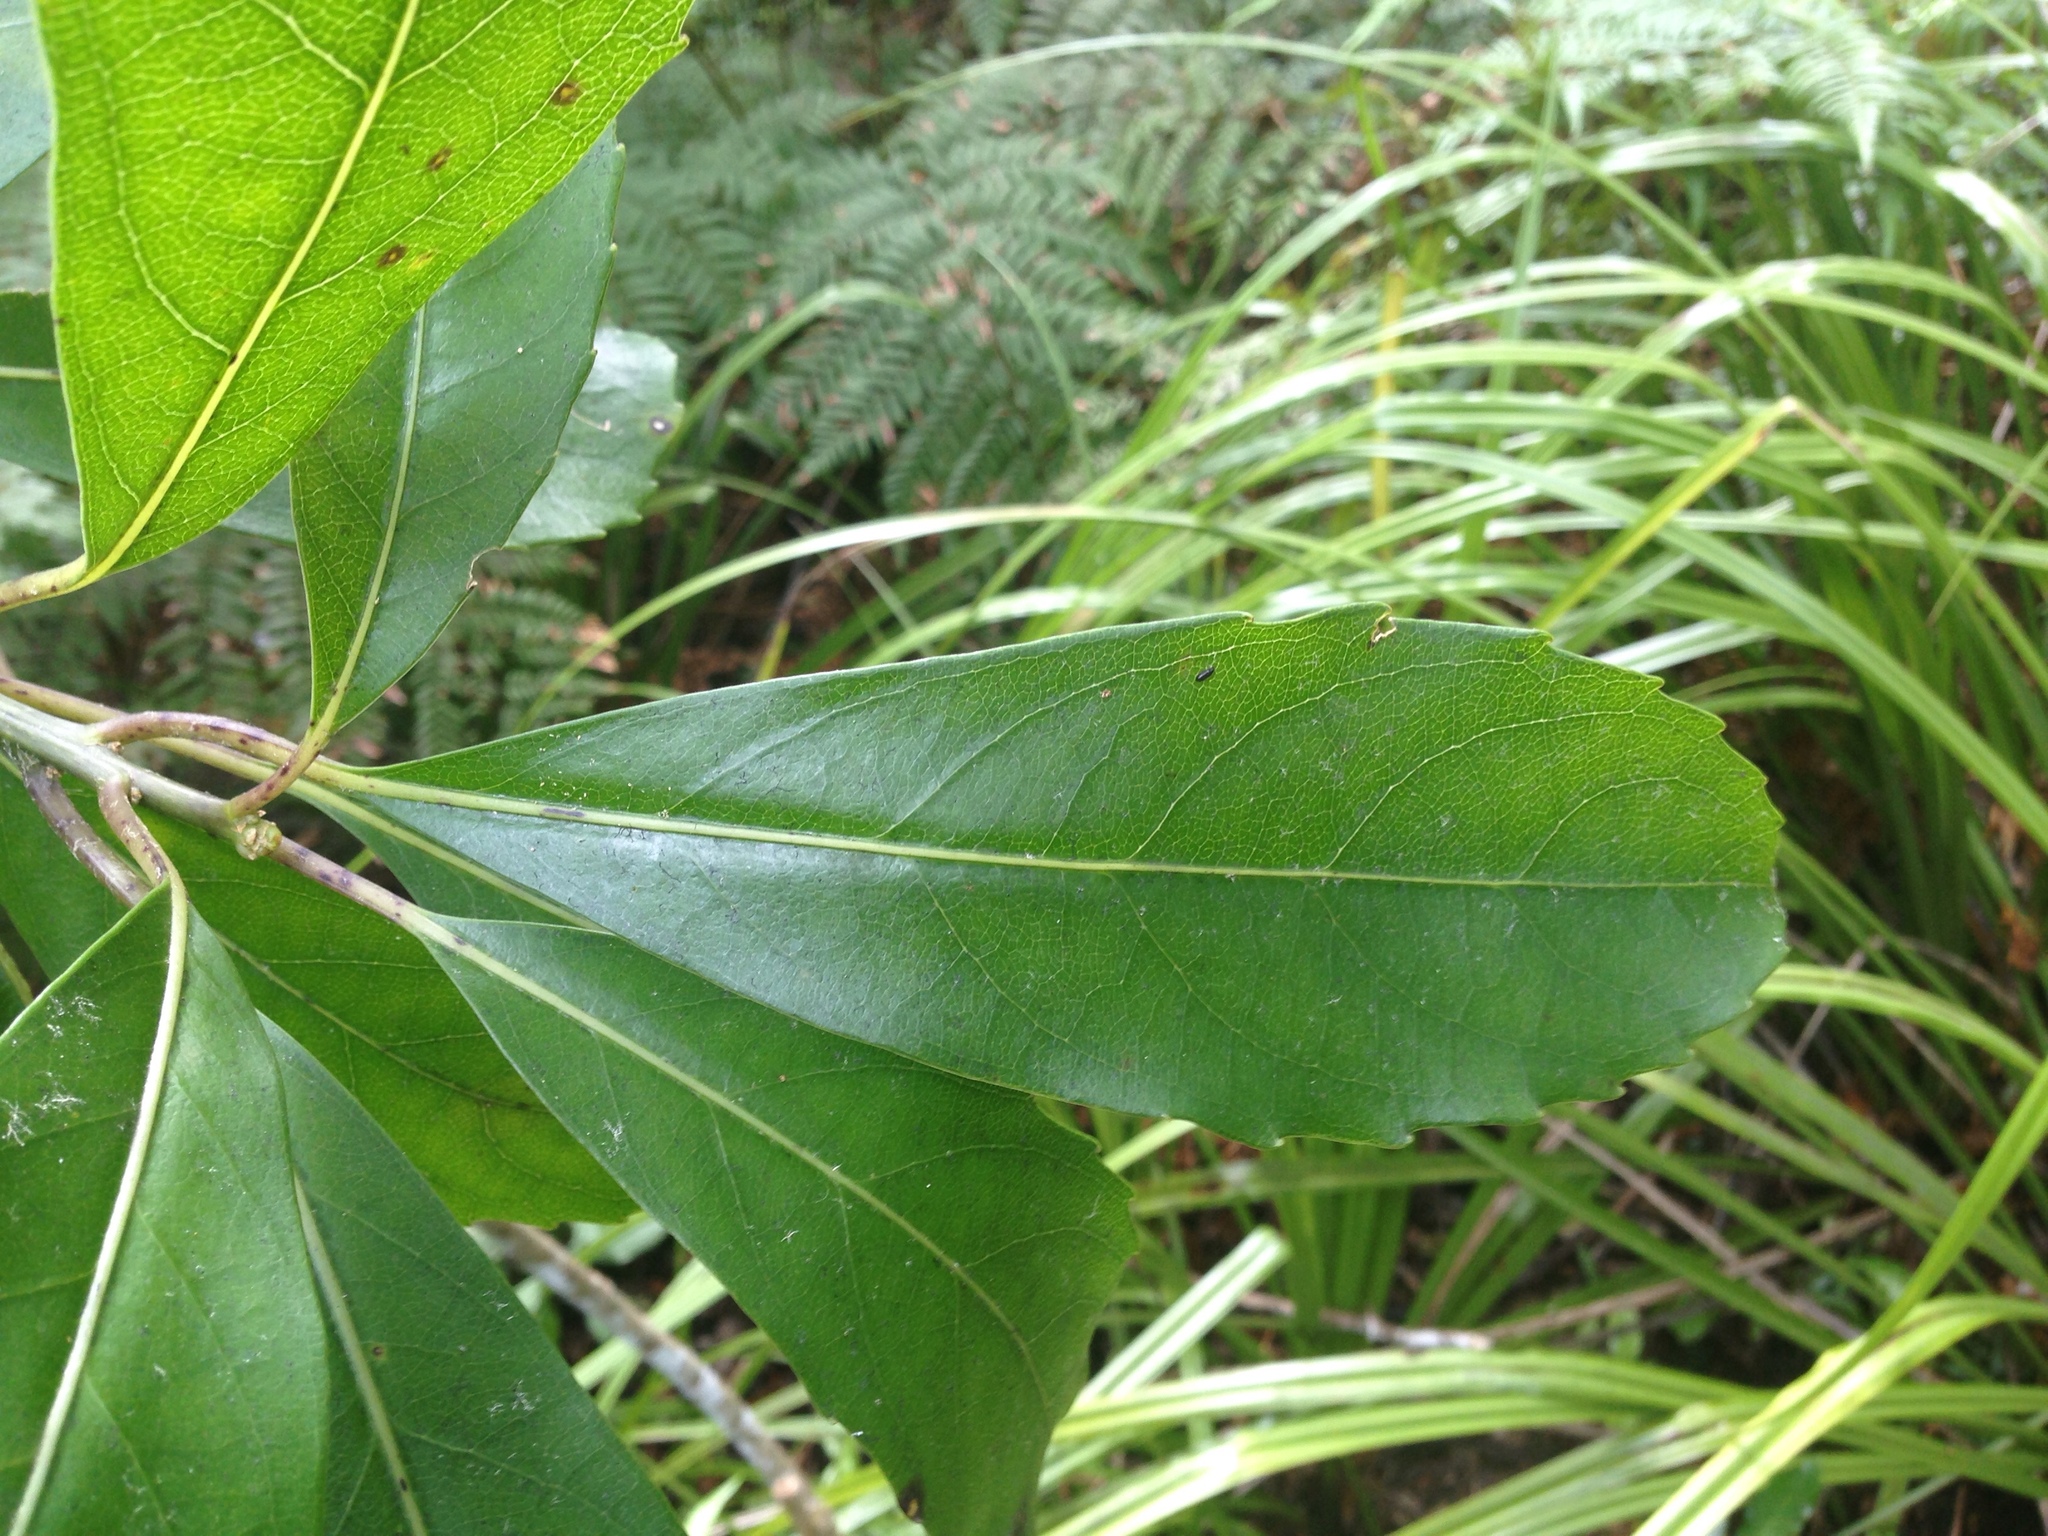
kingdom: Plantae
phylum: Tracheophyta
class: Magnoliopsida
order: Malpighiales
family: Violaceae
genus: Melicytus
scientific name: Melicytus macrophyllus
